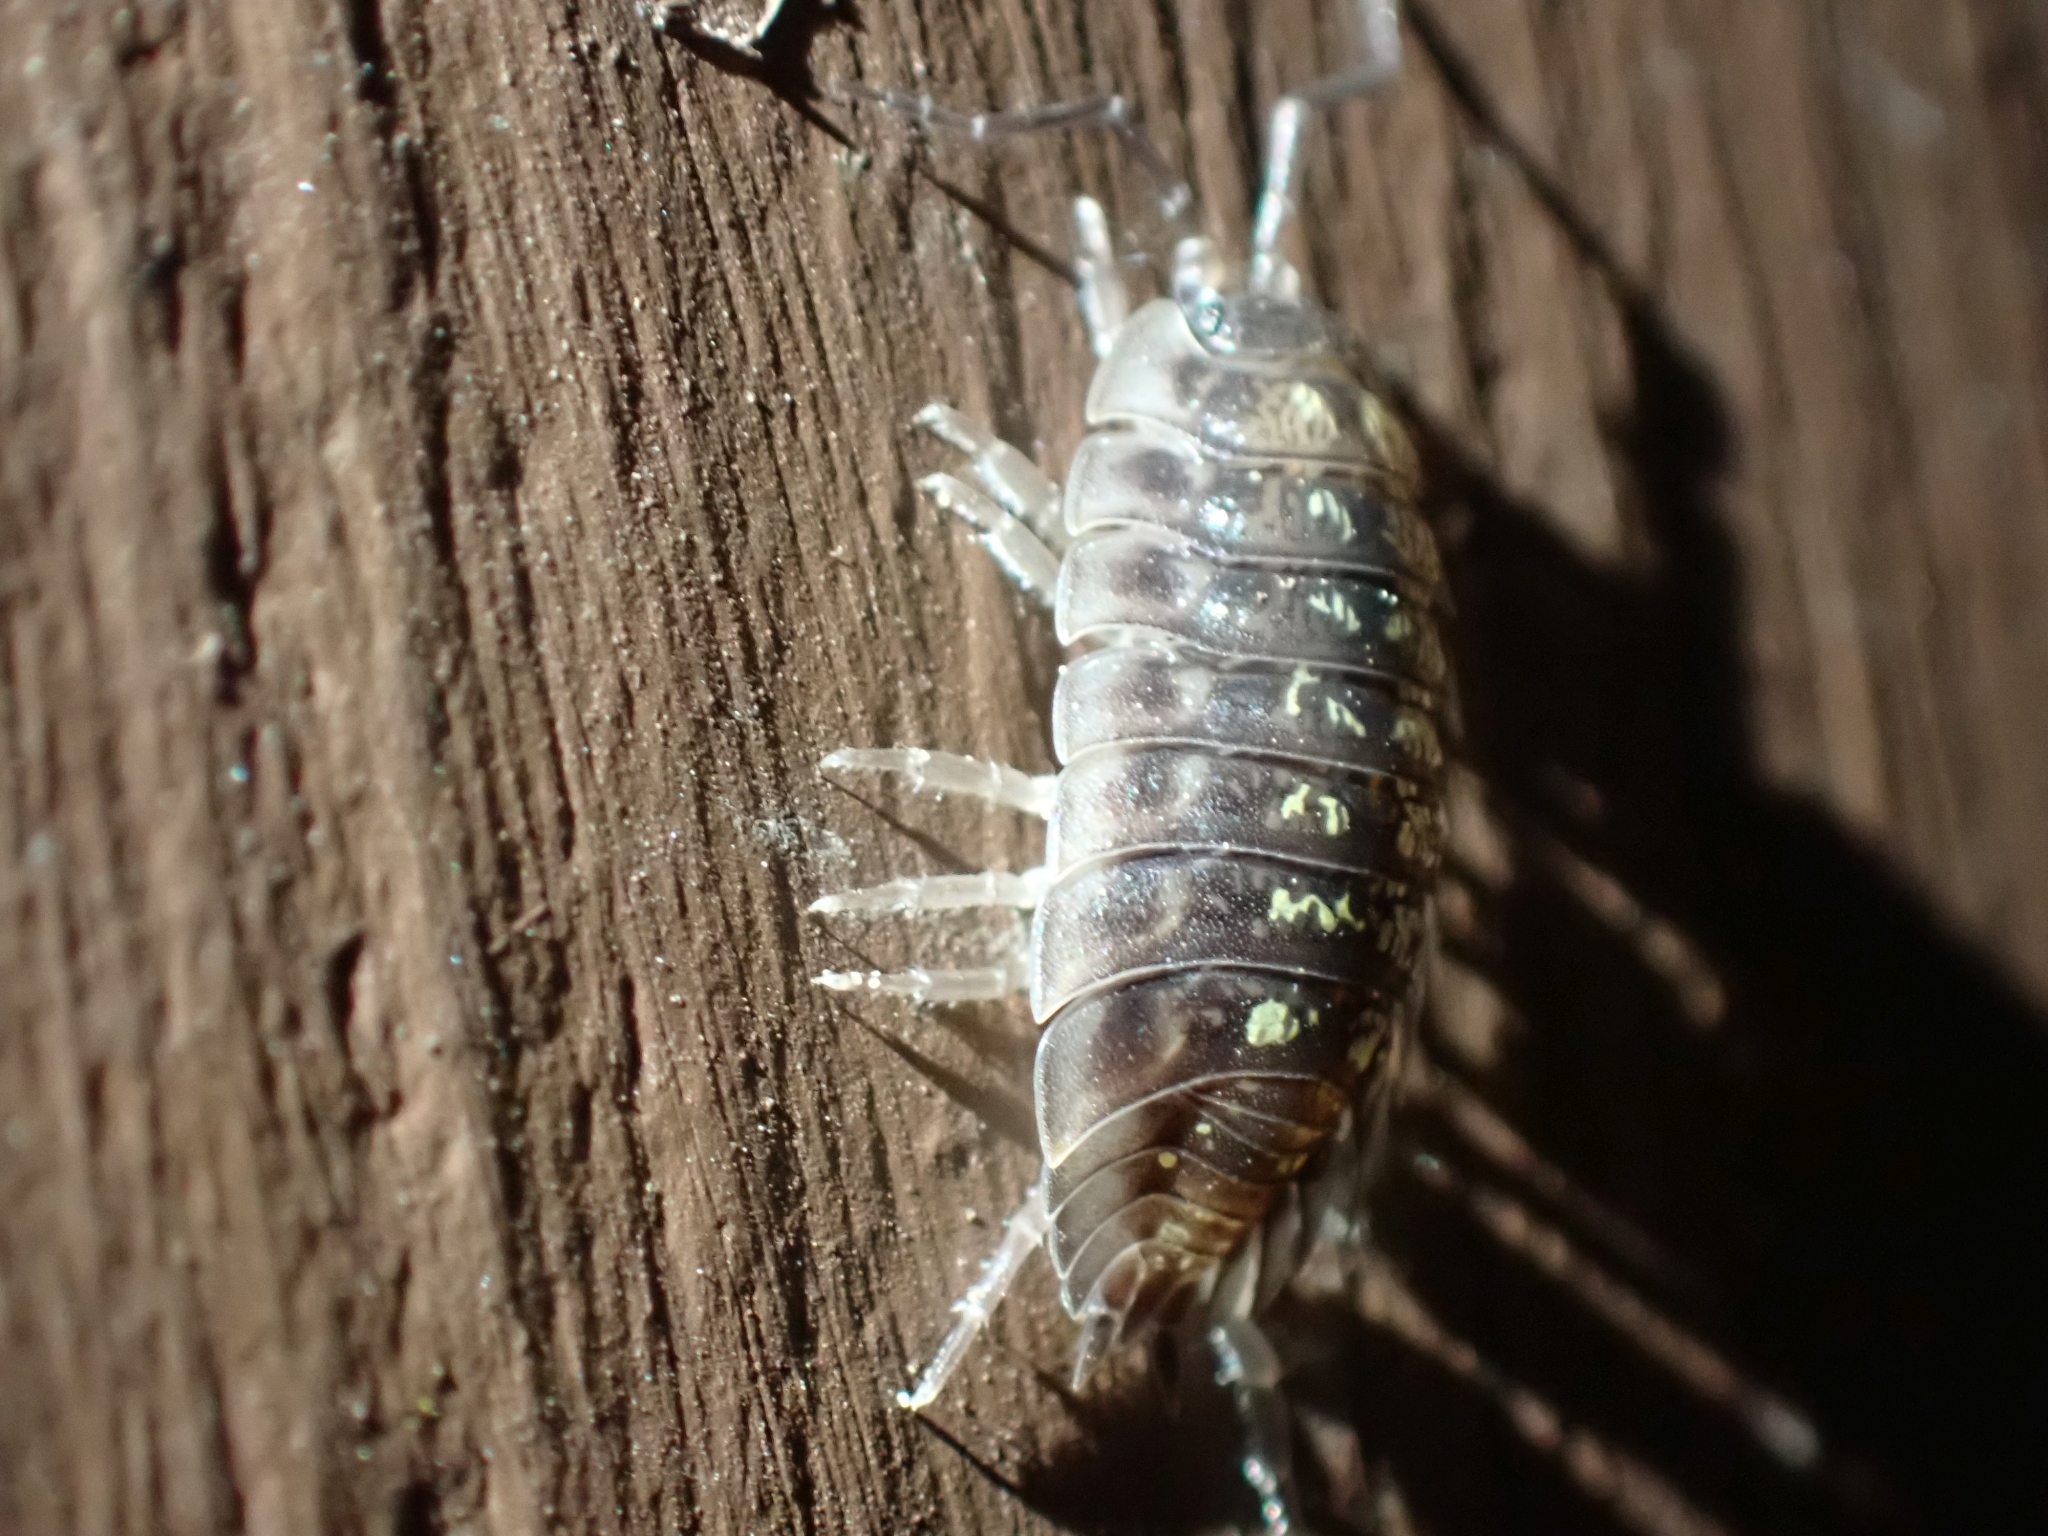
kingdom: Animalia
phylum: Arthropoda
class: Malacostraca
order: Isopoda
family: Oniscidae
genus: Oniscus
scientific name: Oniscus asellus
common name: Common shiny woodlouse
